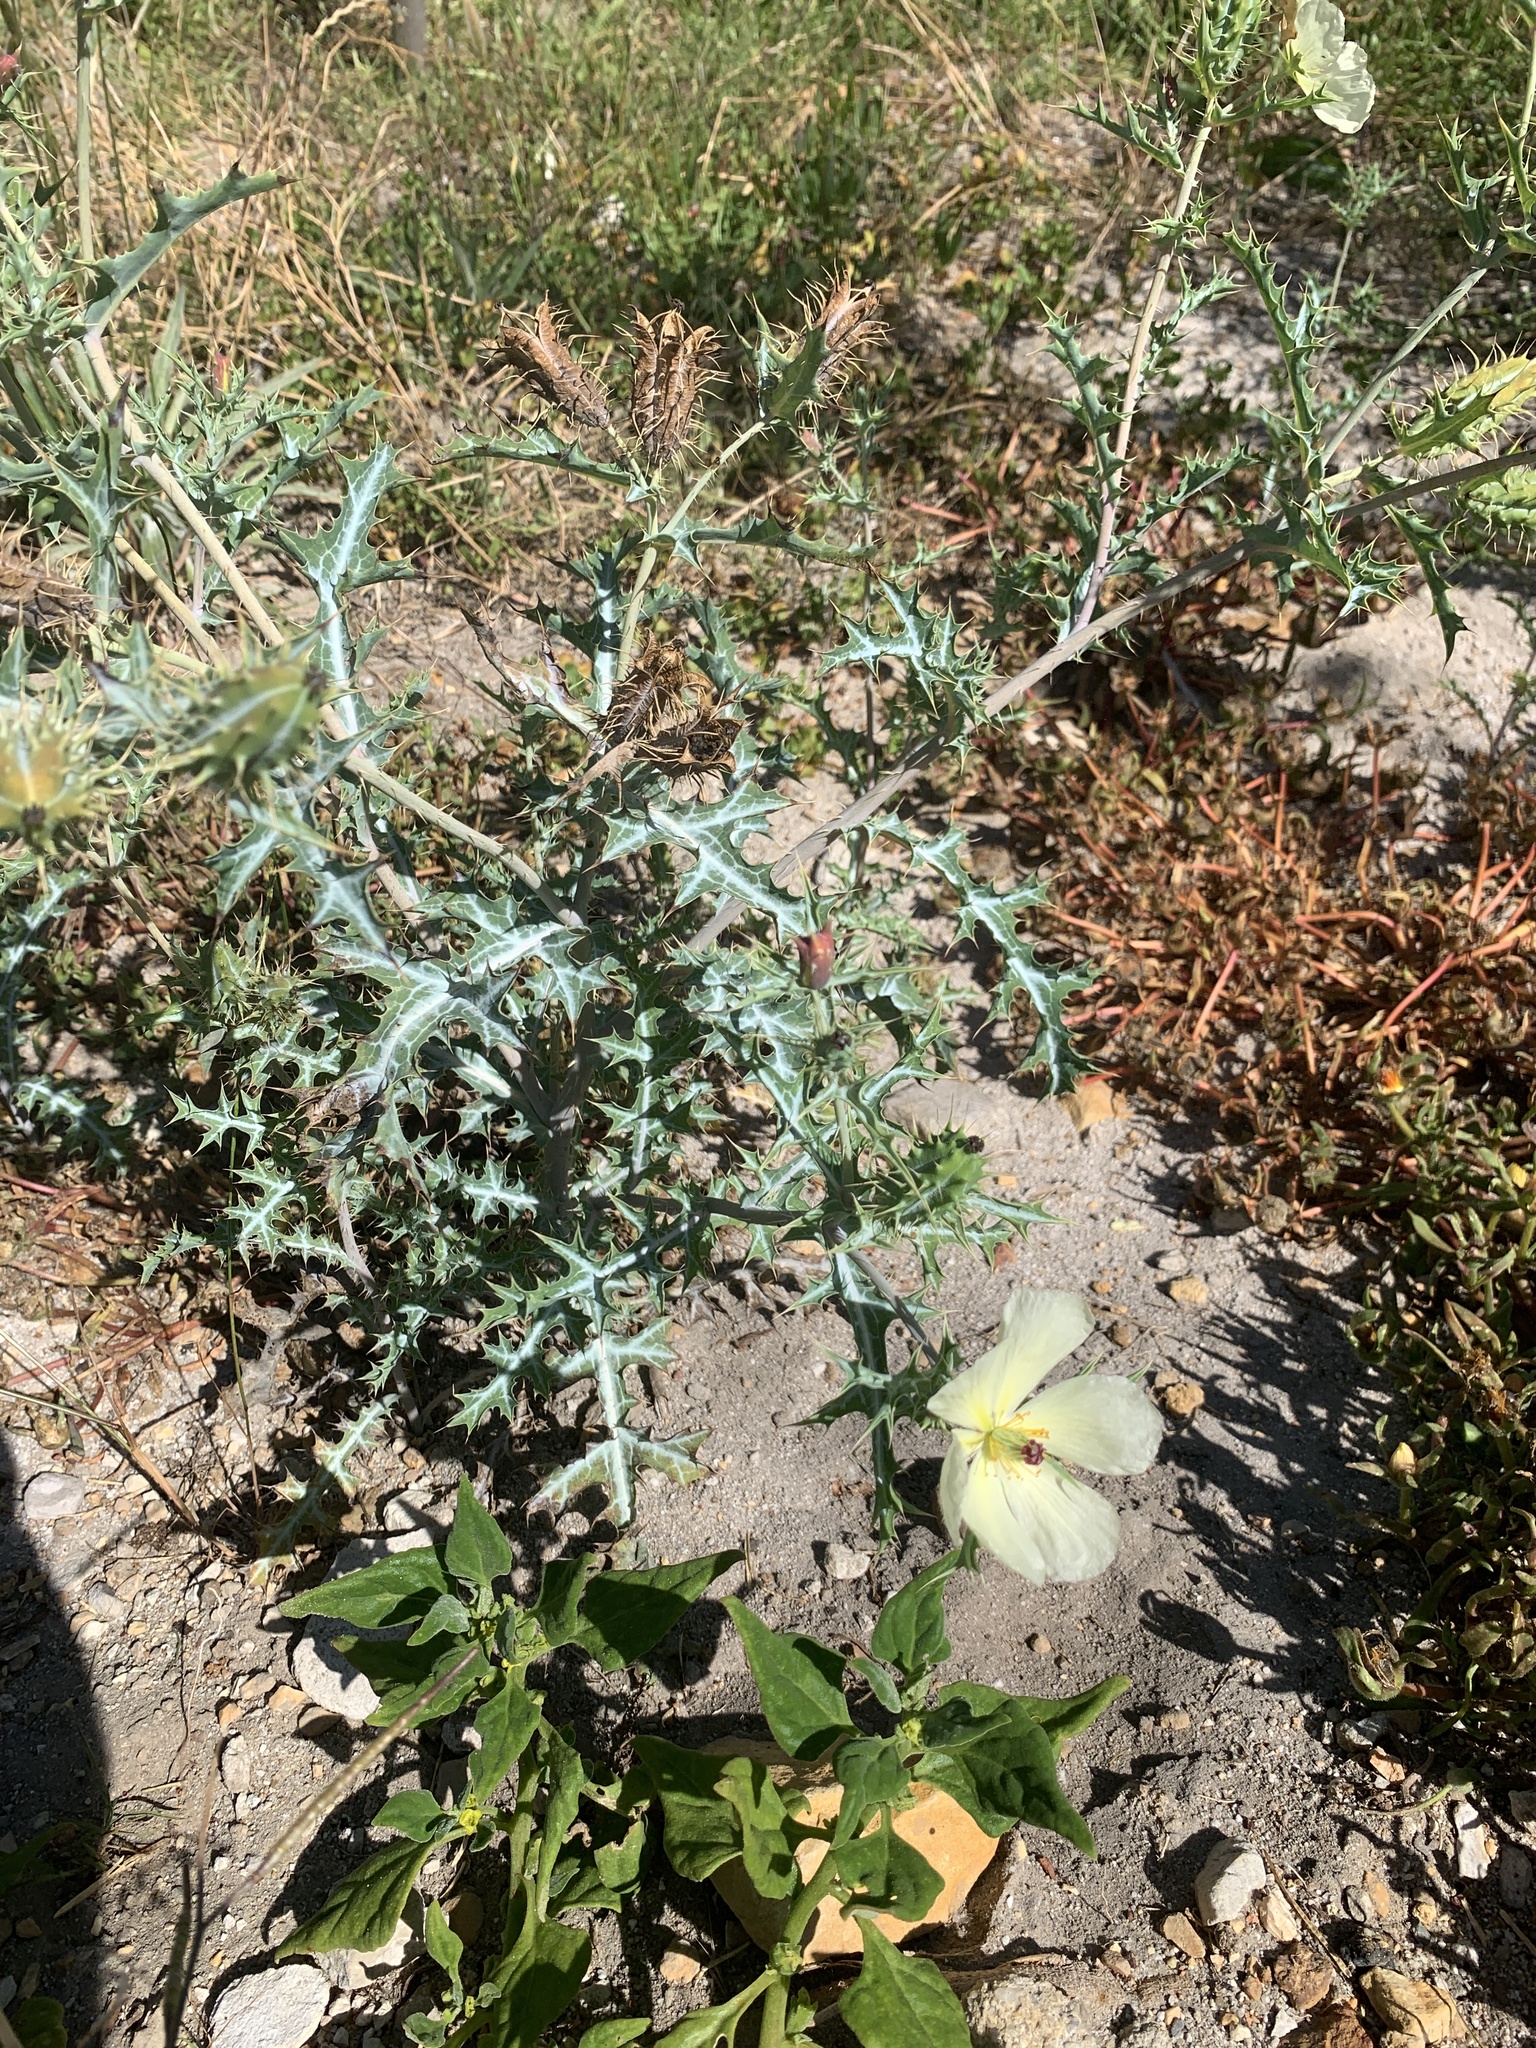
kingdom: Plantae
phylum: Tracheophyta
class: Magnoliopsida
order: Ranunculales
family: Papaveraceae
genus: Argemone
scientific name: Argemone ochroleuca
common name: White-flower mexican-poppy
